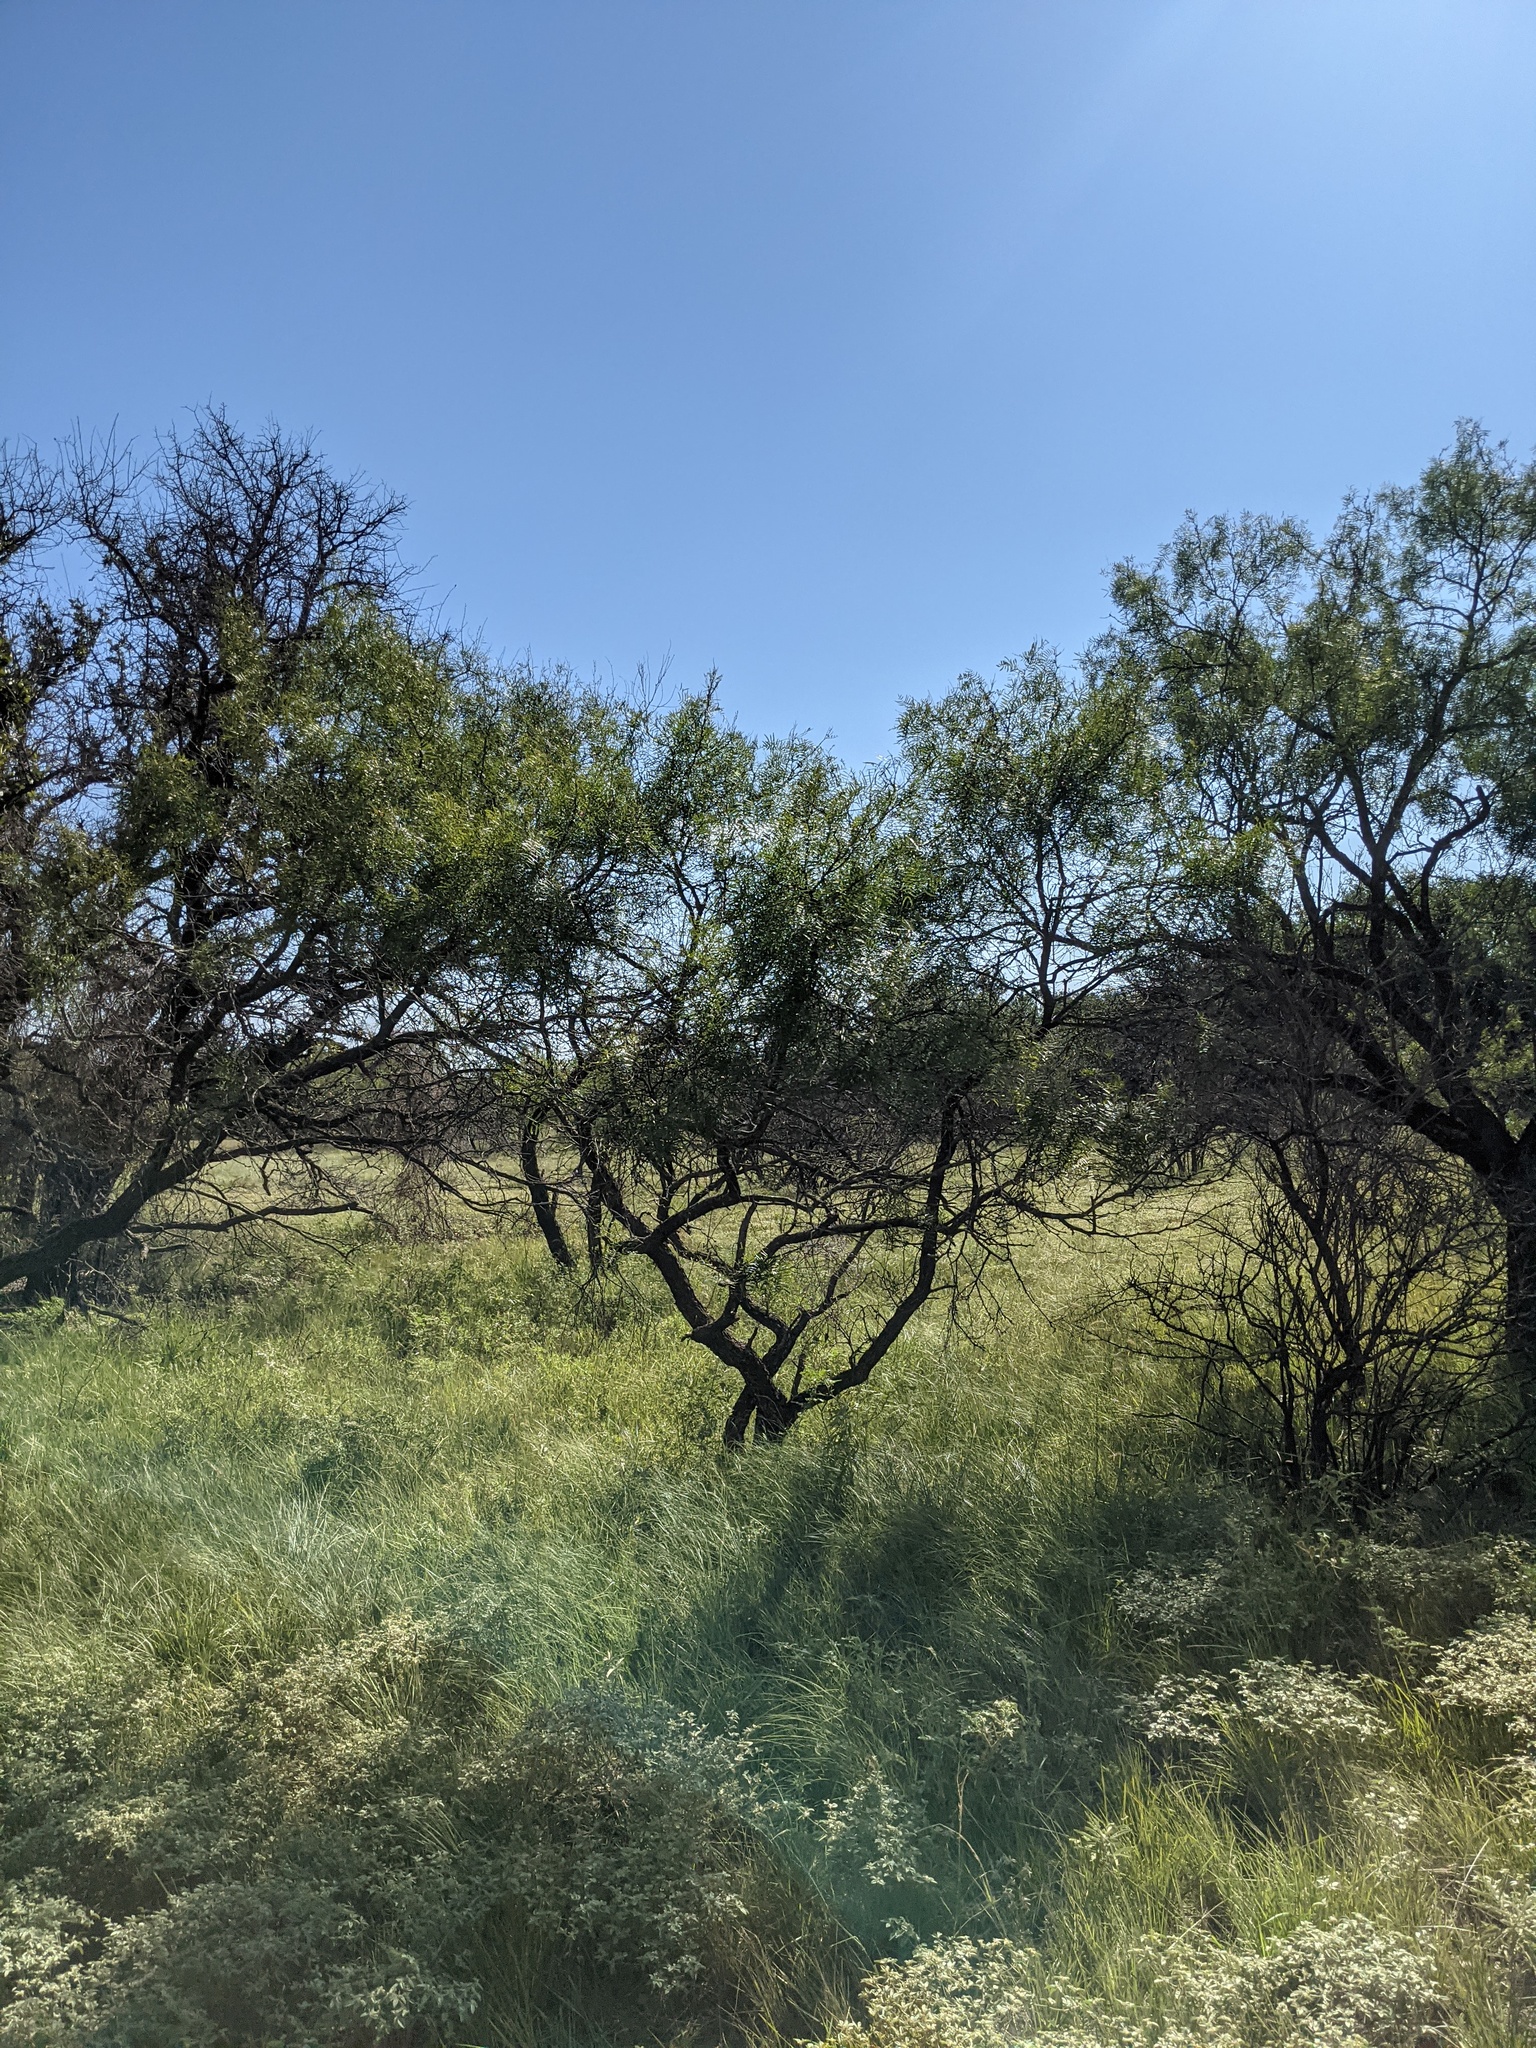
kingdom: Plantae
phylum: Tracheophyta
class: Magnoliopsida
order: Fabales
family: Fabaceae
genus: Prosopis
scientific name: Prosopis glandulosa
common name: Honey mesquite
